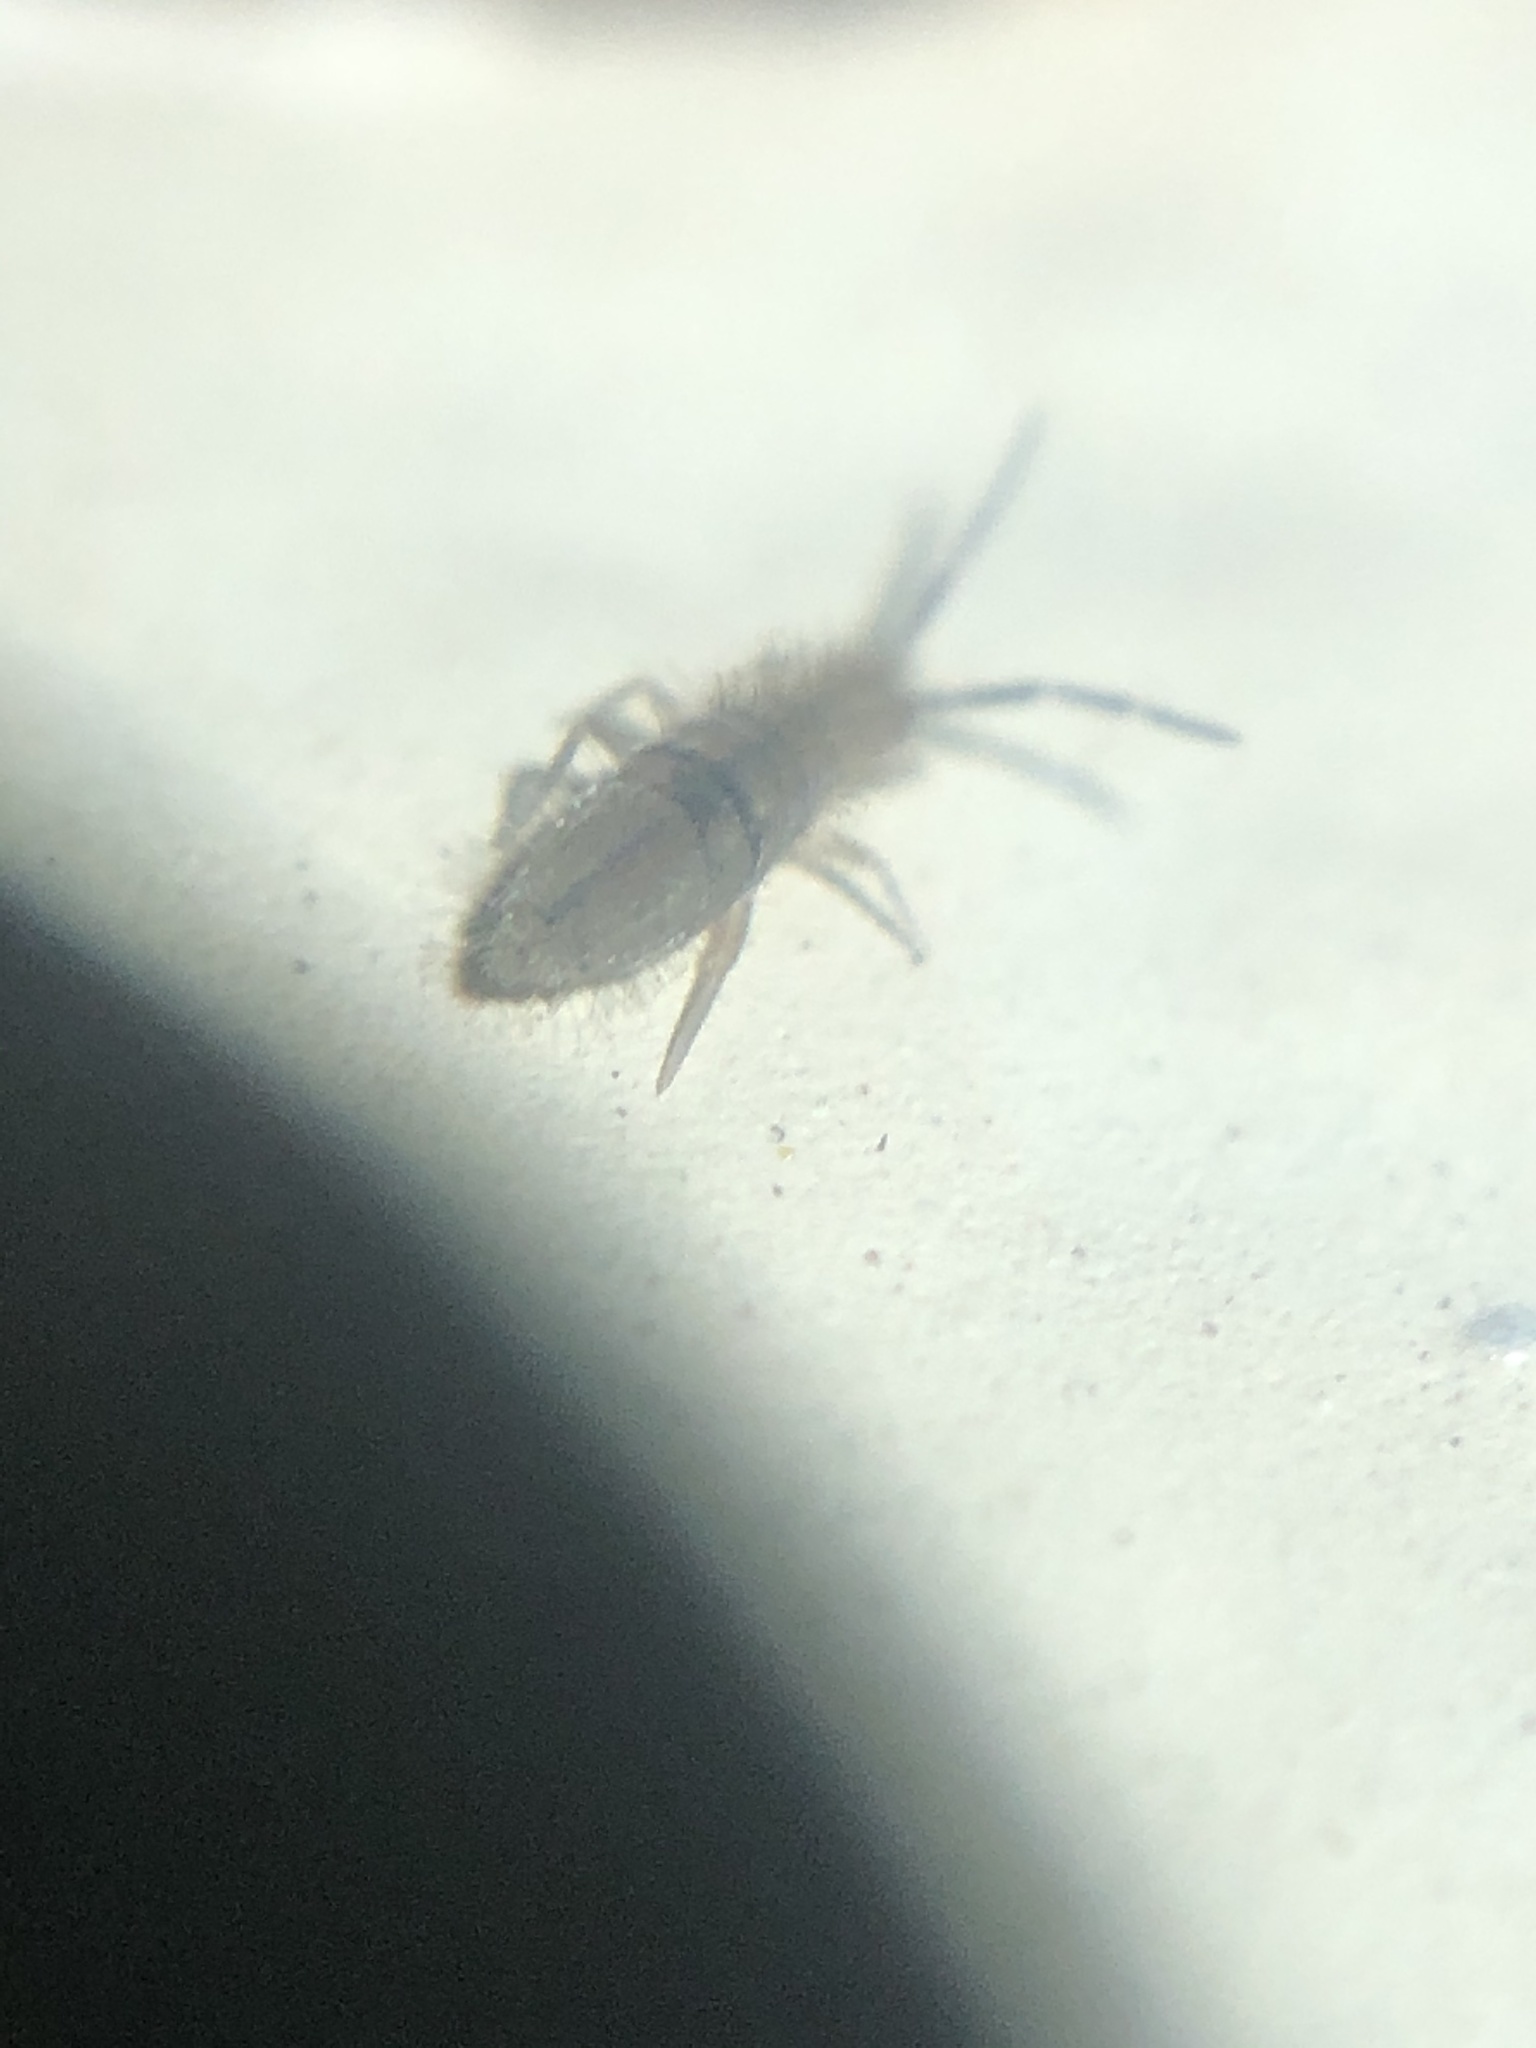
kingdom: Animalia
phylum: Arthropoda
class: Collembola
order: Entomobryomorpha
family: Entomobryidae
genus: Entomobrya
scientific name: Entomobrya unostrigata
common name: Springtail
